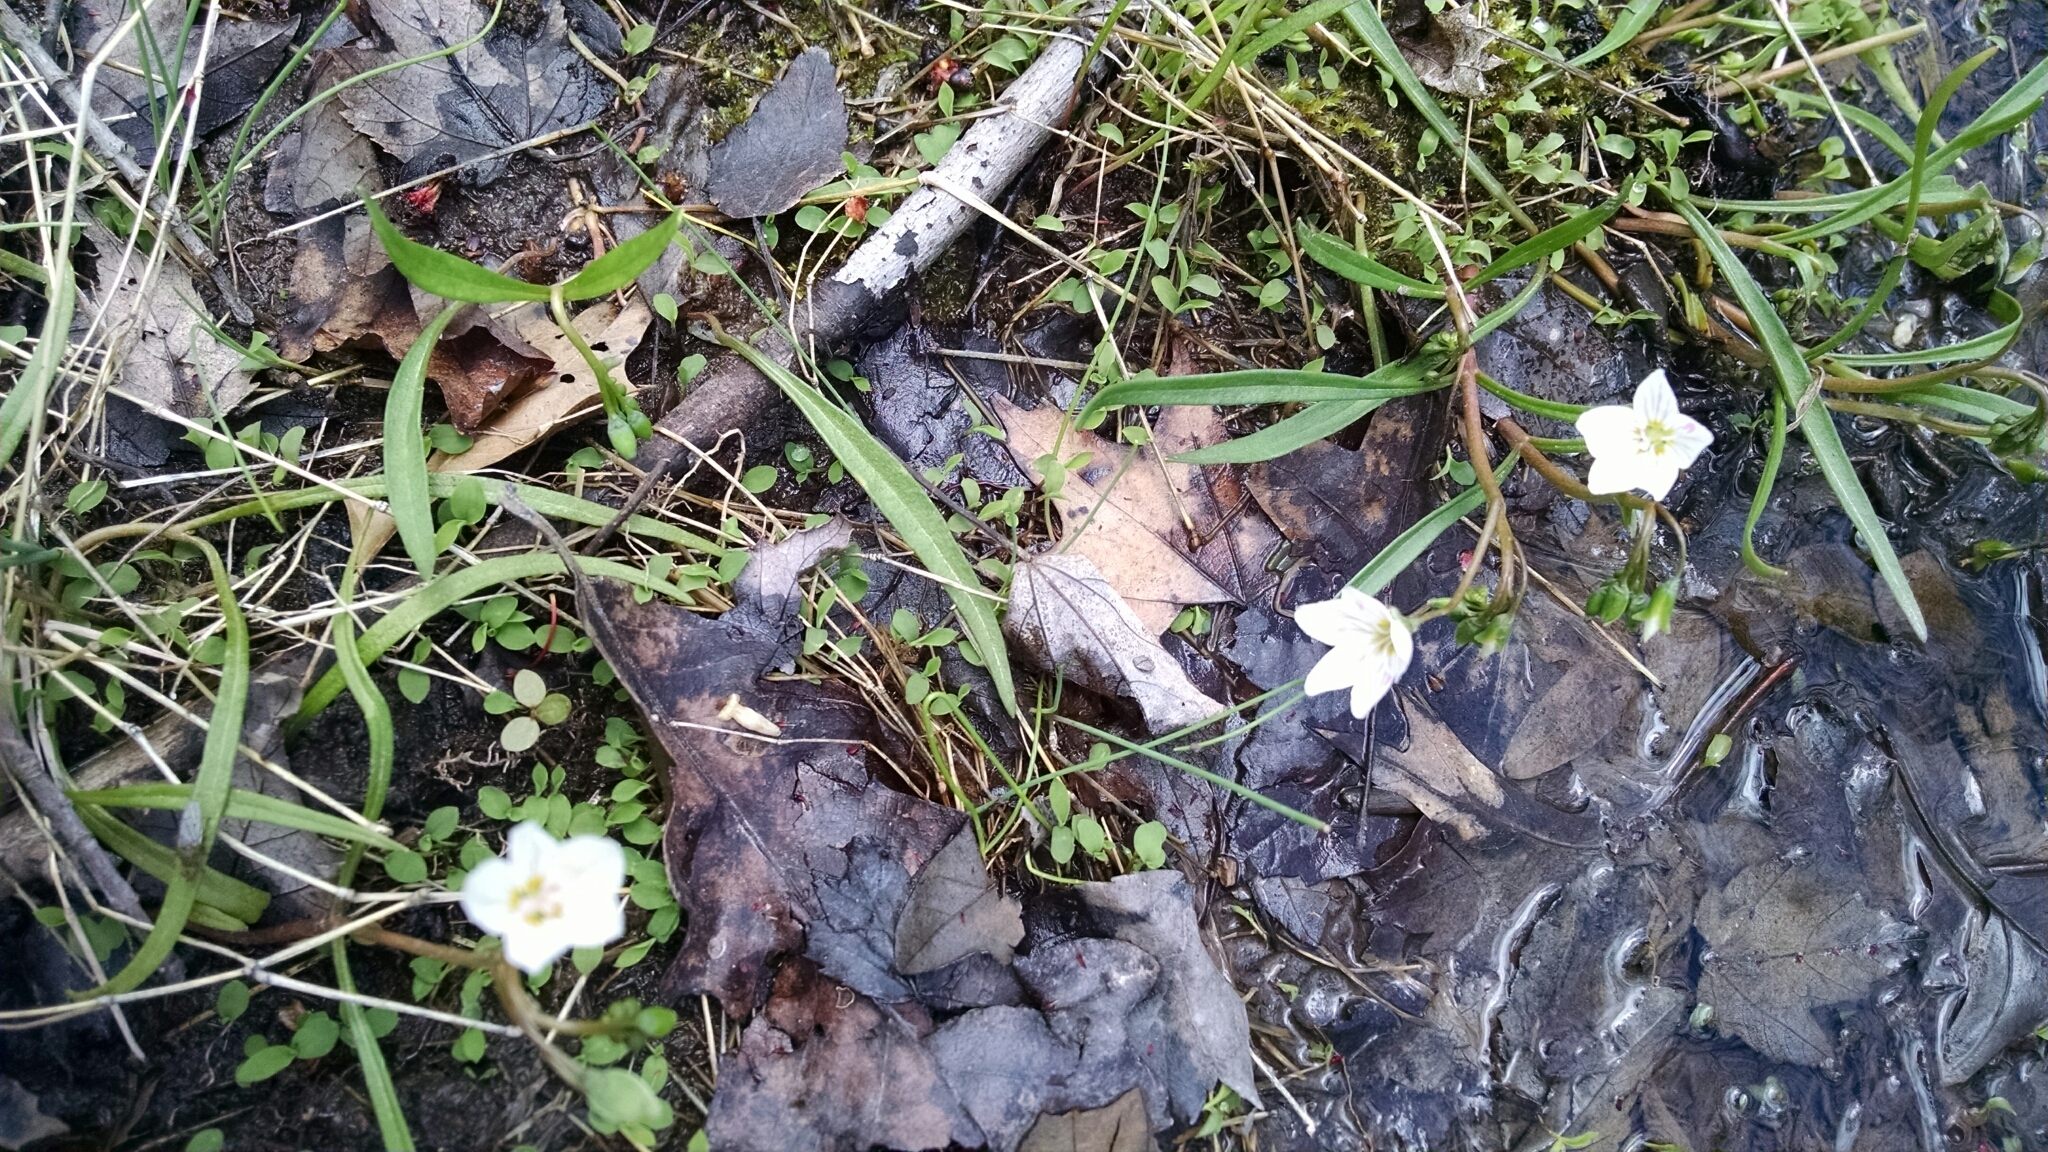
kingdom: Plantae
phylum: Tracheophyta
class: Magnoliopsida
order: Caryophyllales
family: Montiaceae
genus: Claytonia
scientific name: Claytonia virginica
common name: Virginia springbeauty
